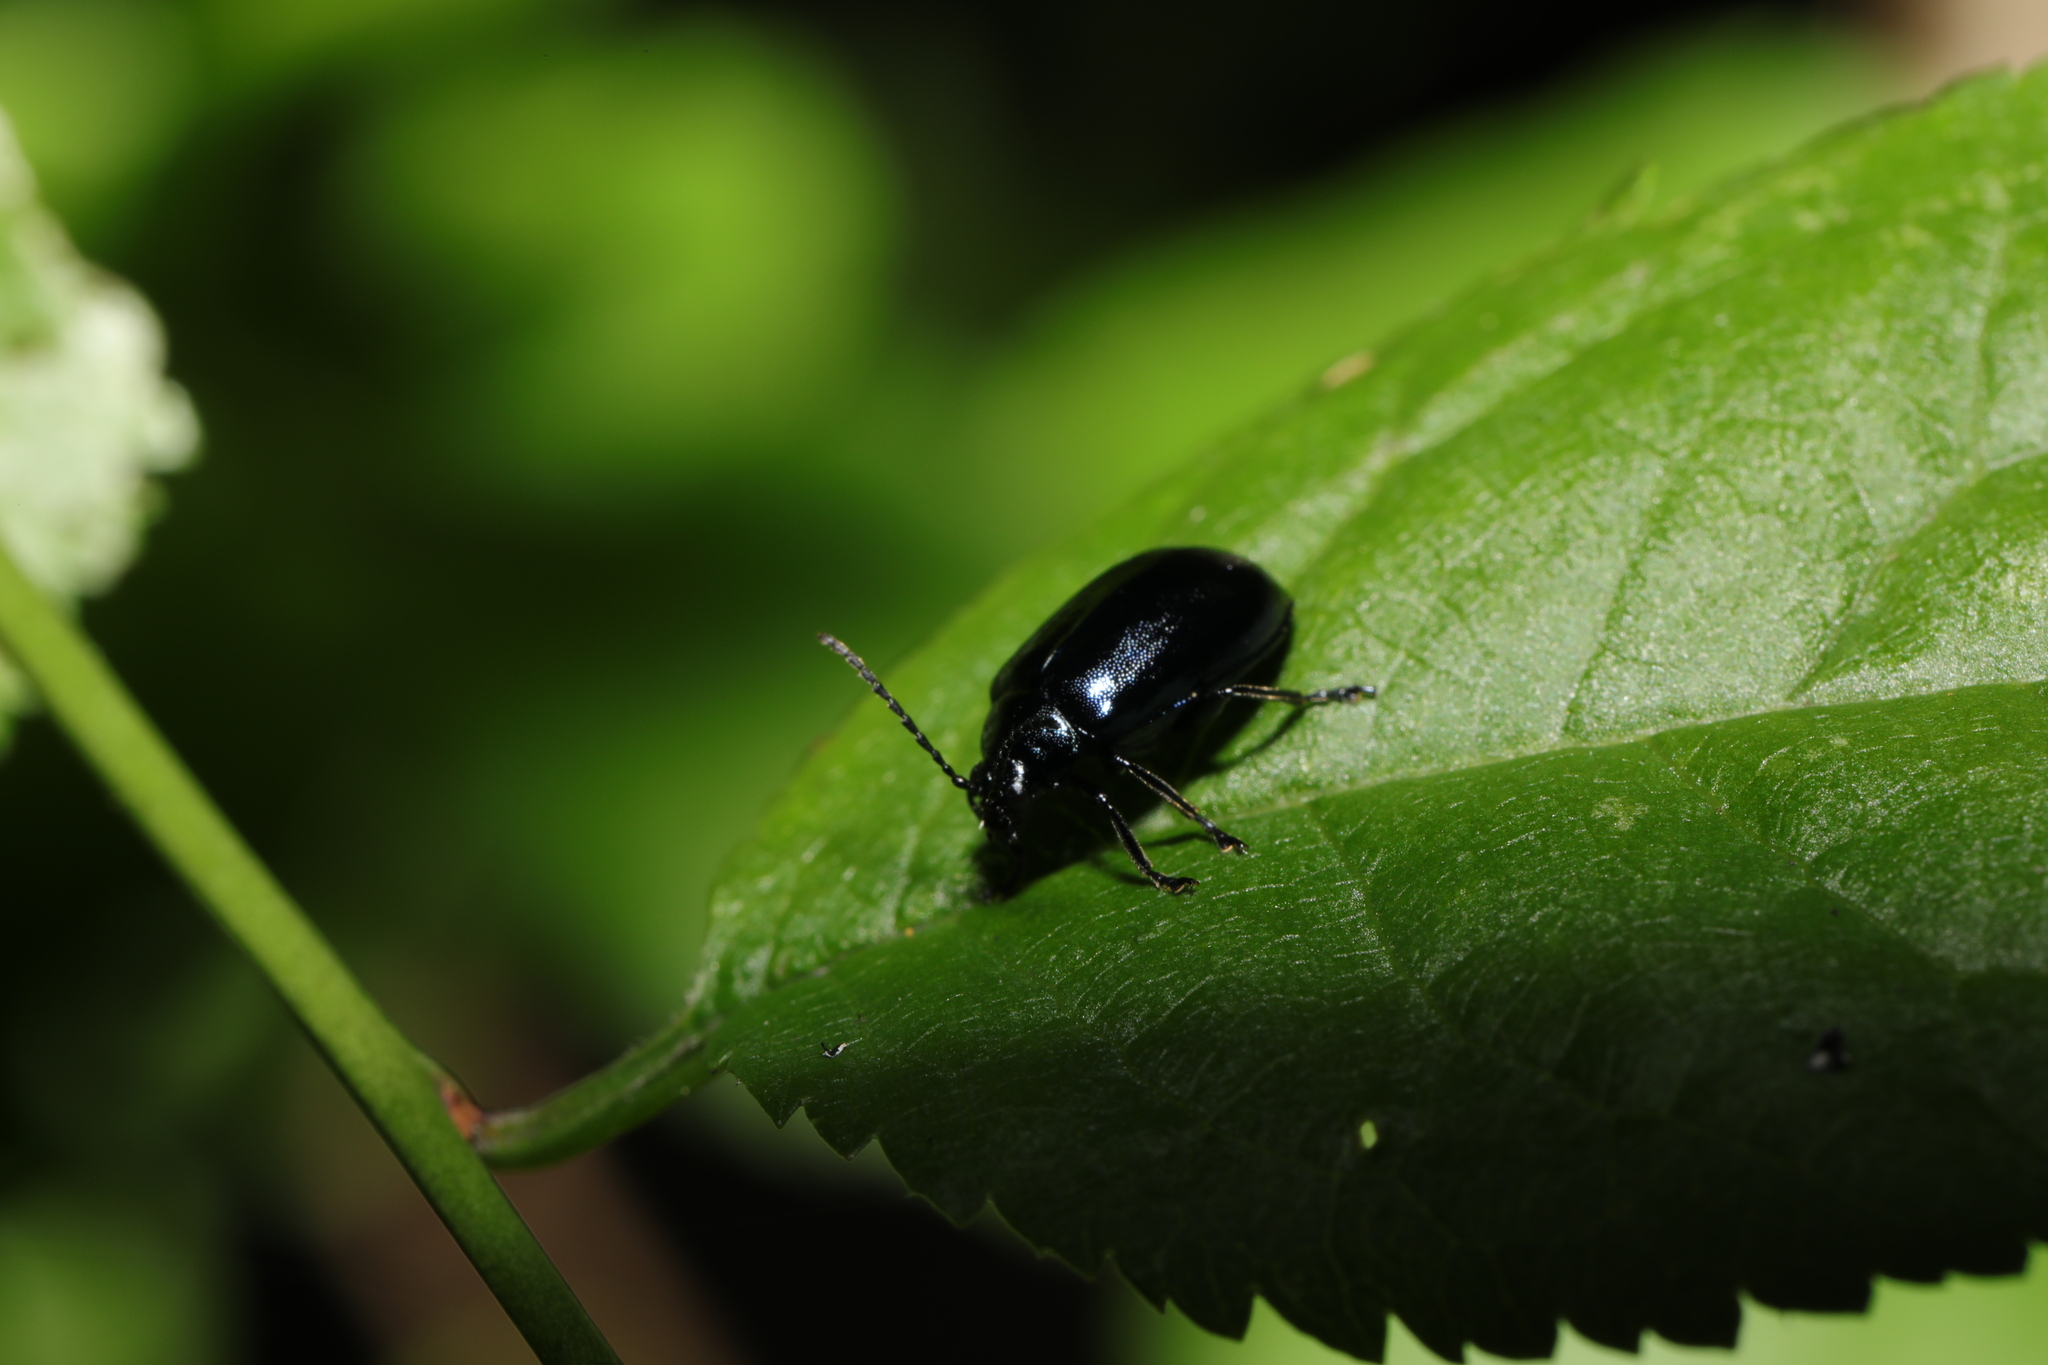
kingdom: Animalia
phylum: Arthropoda
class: Insecta
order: Coleoptera
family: Chrysomelidae
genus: Agelastica
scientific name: Agelastica alni
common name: Alder leaf beetle
